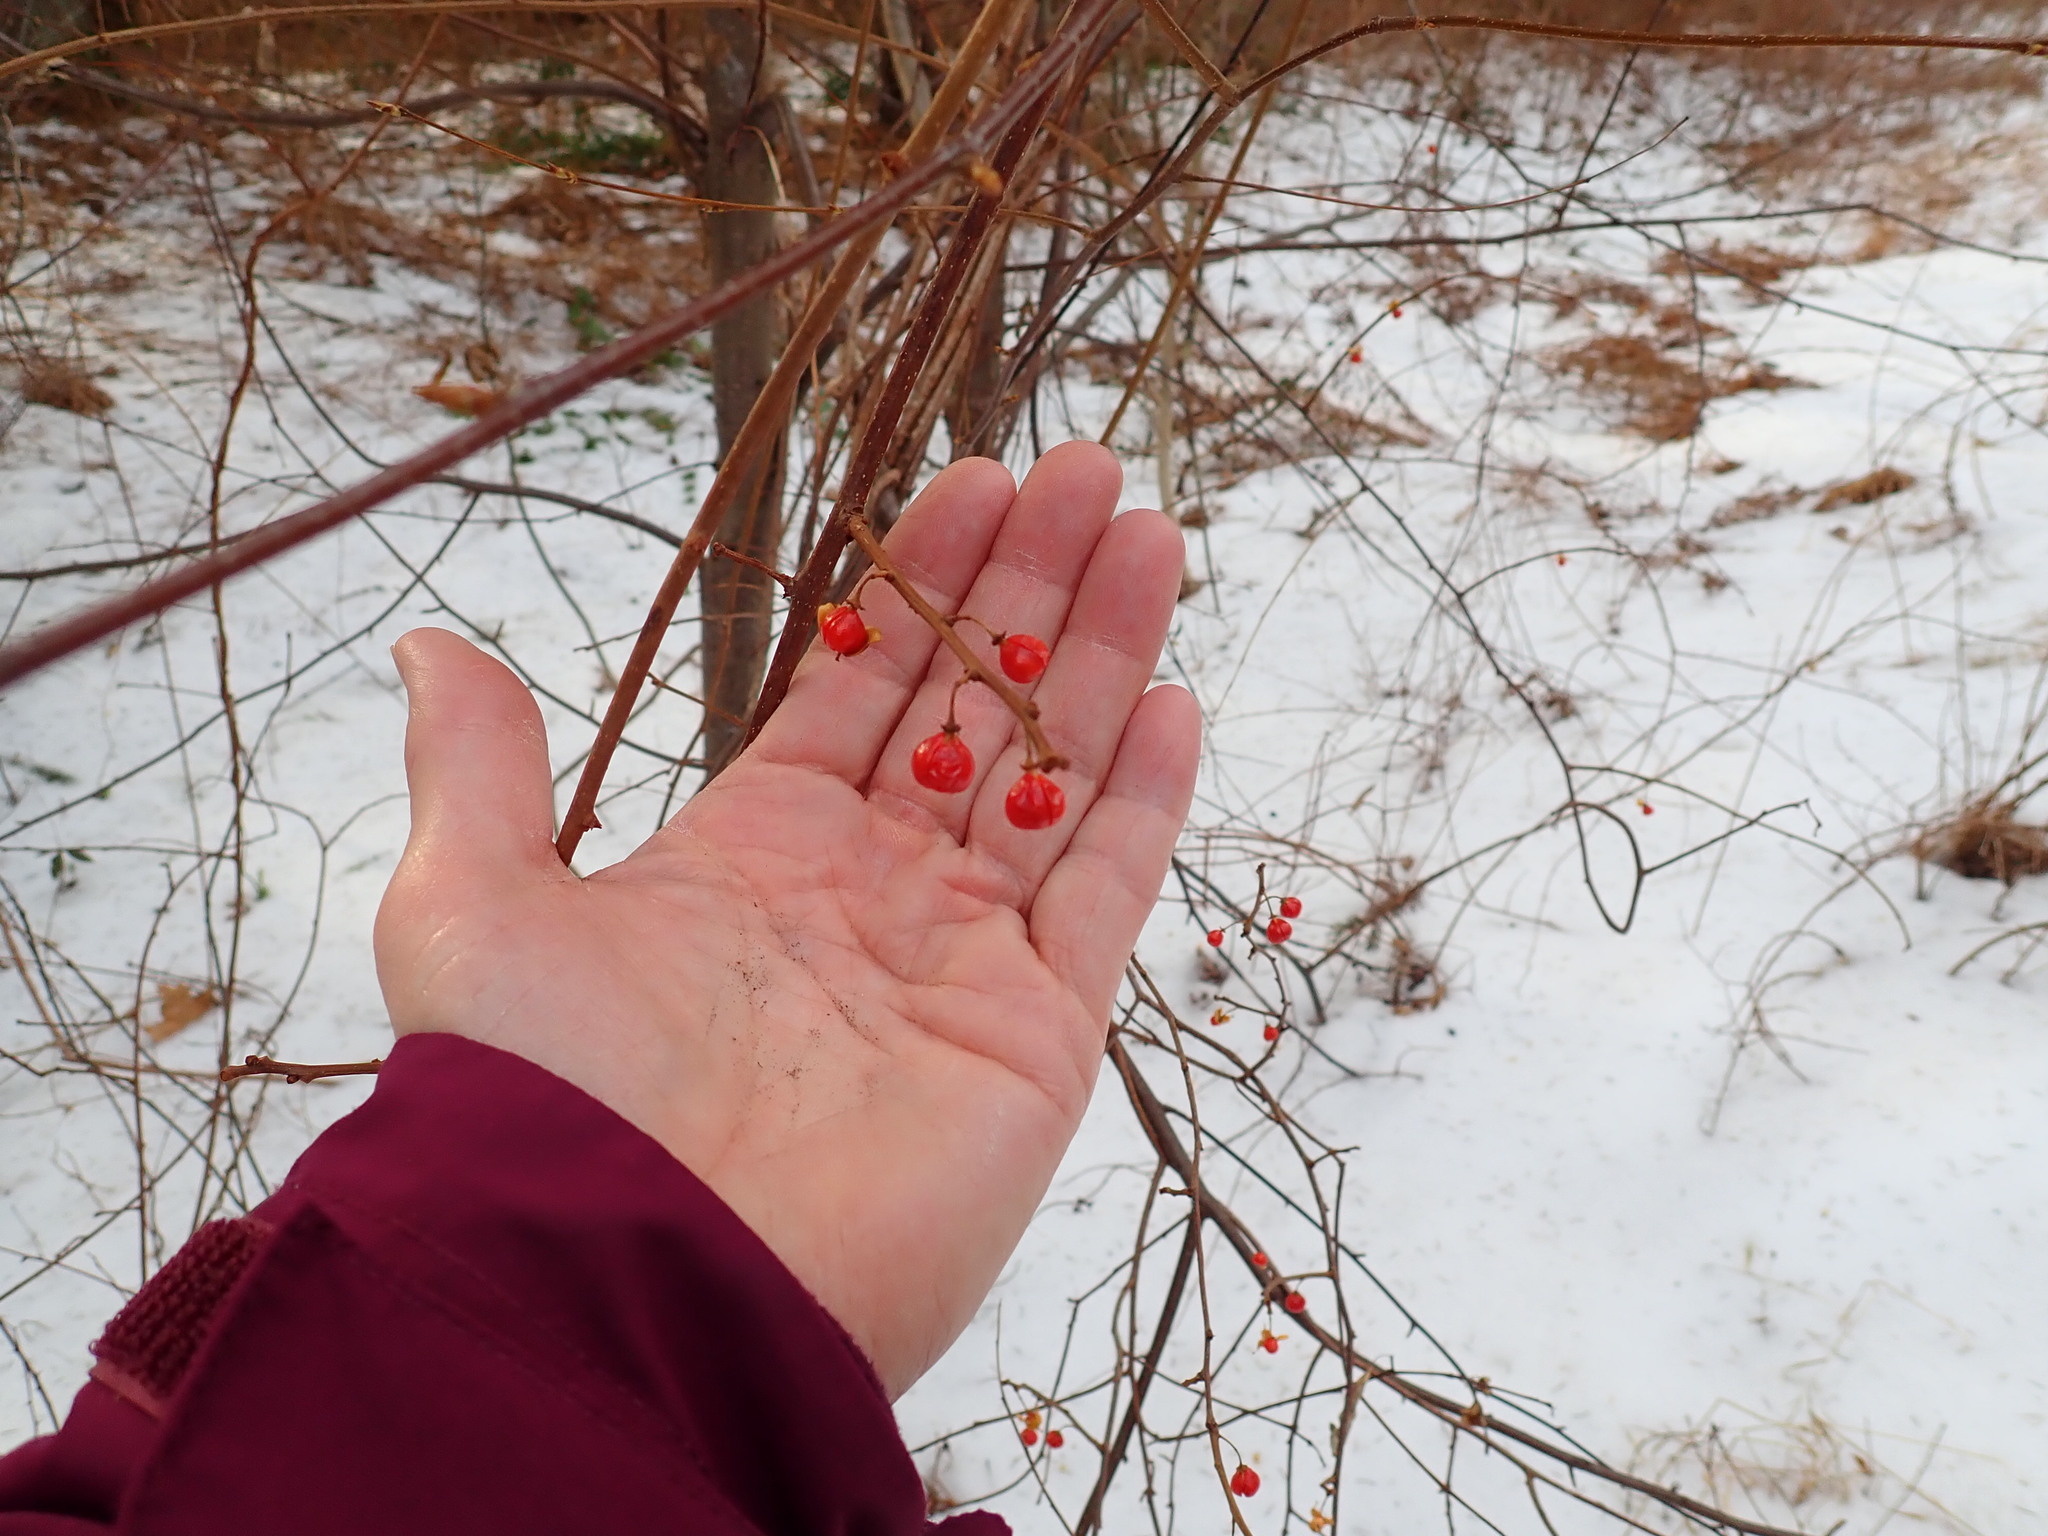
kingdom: Plantae
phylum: Tracheophyta
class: Magnoliopsida
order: Celastrales
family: Celastraceae
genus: Celastrus
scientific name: Celastrus orbiculatus
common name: Oriental bittersweet
